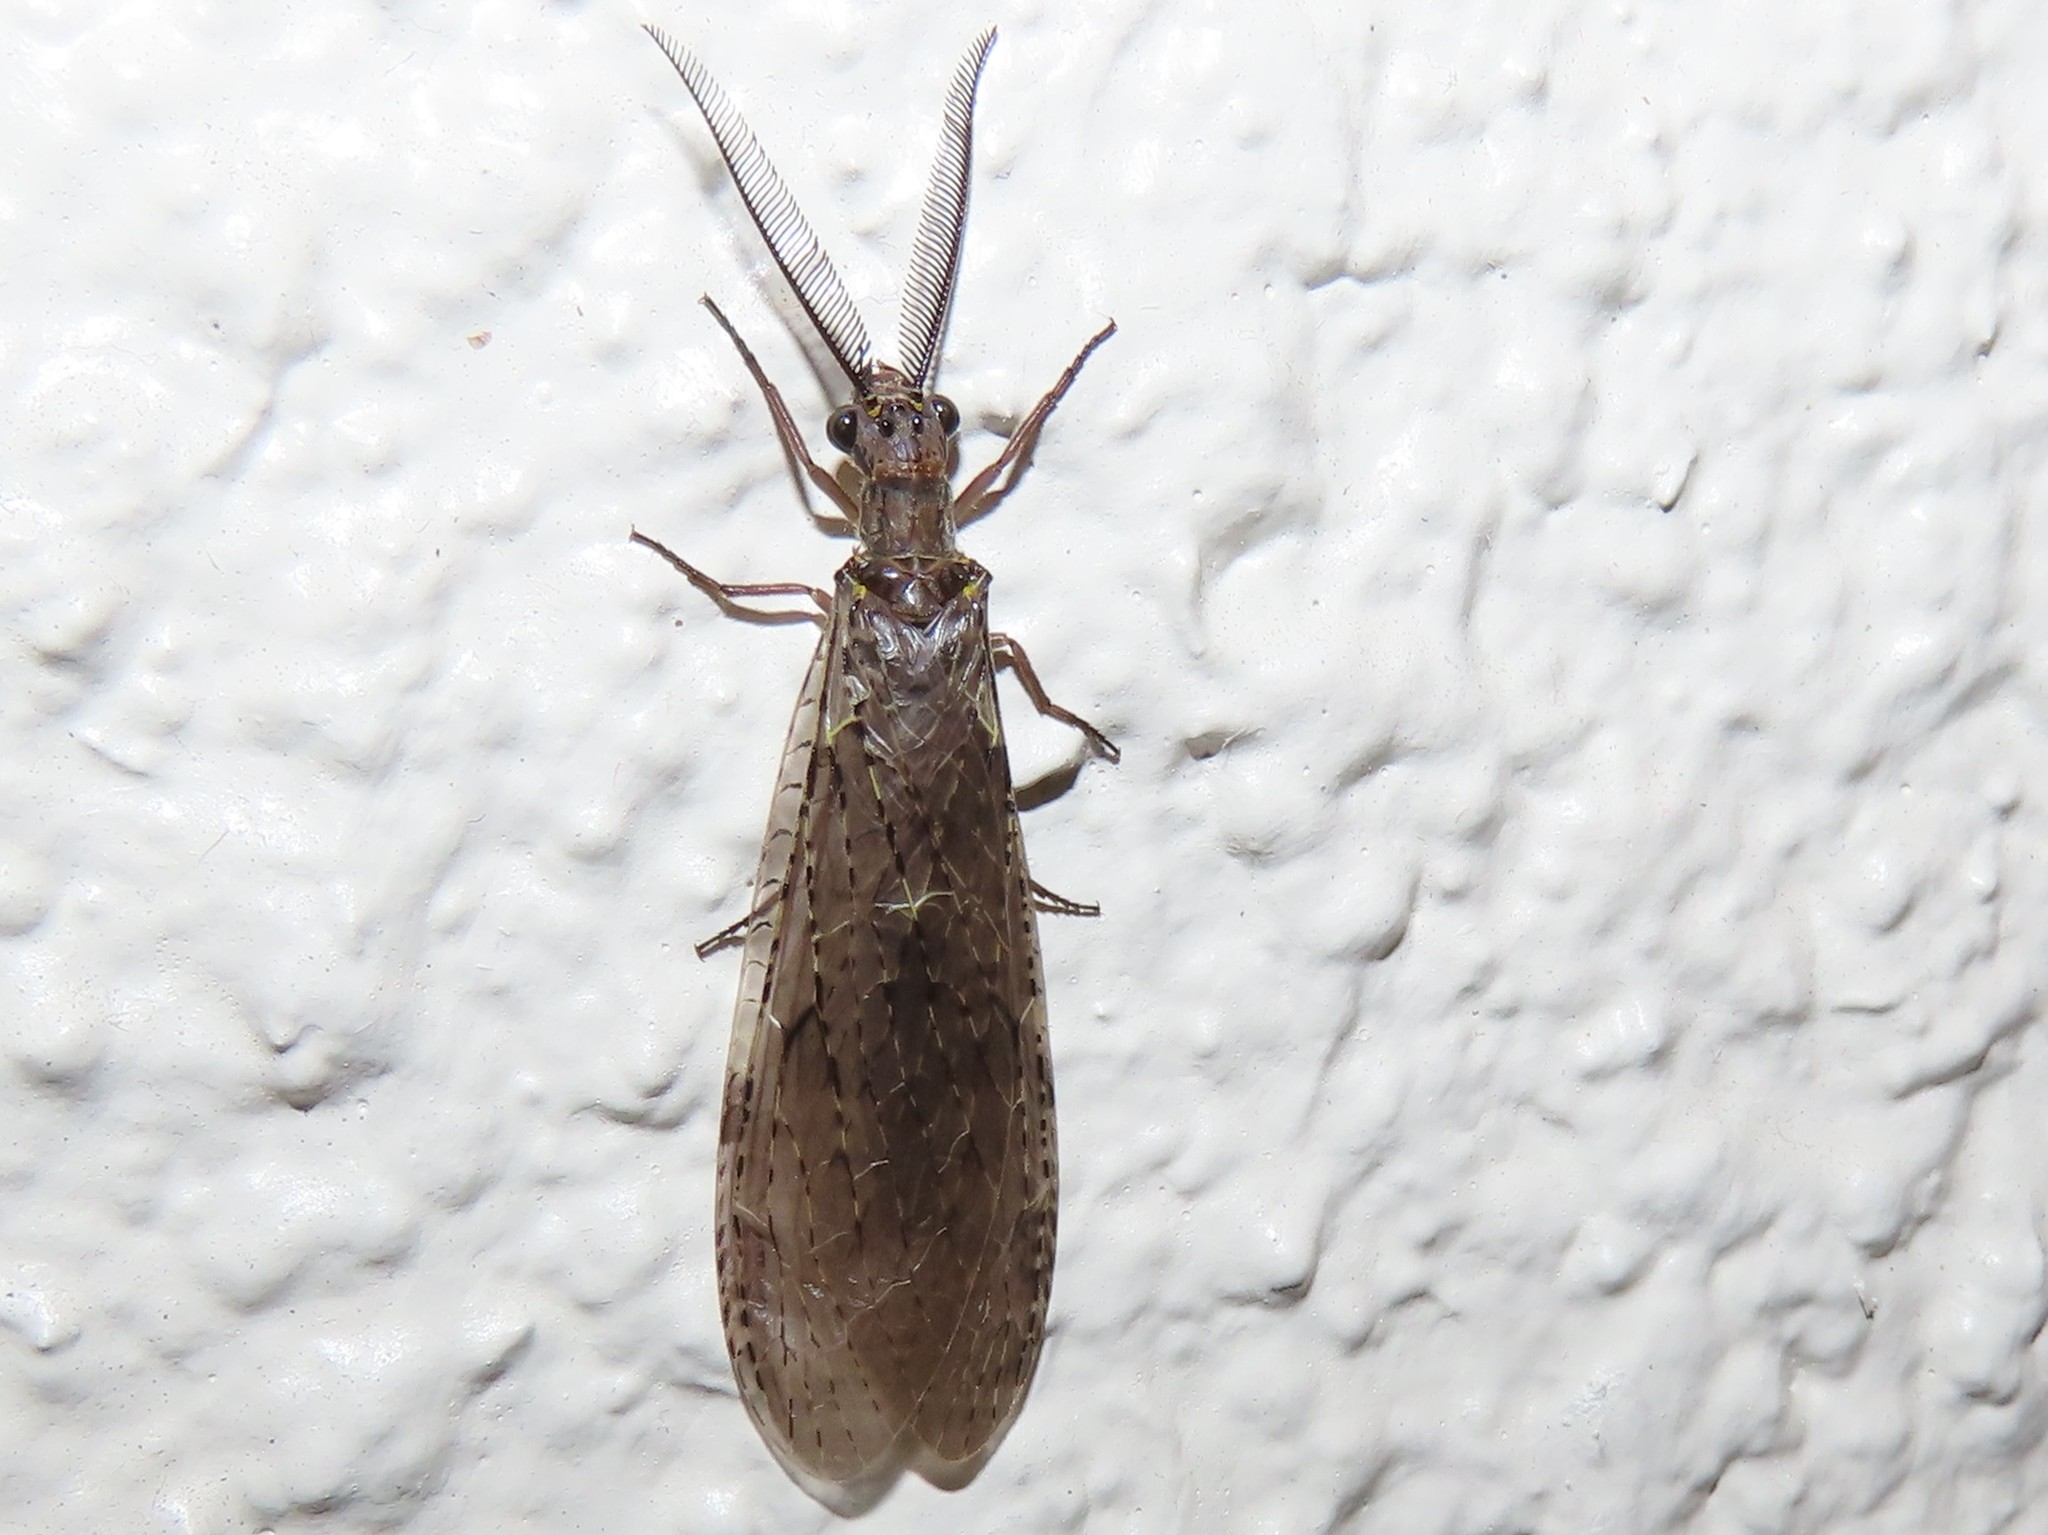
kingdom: Animalia
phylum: Arthropoda
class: Insecta
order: Megaloptera
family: Corydalidae
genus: Chauliodes
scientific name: Chauliodes rastricornis
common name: Spring fishfly
